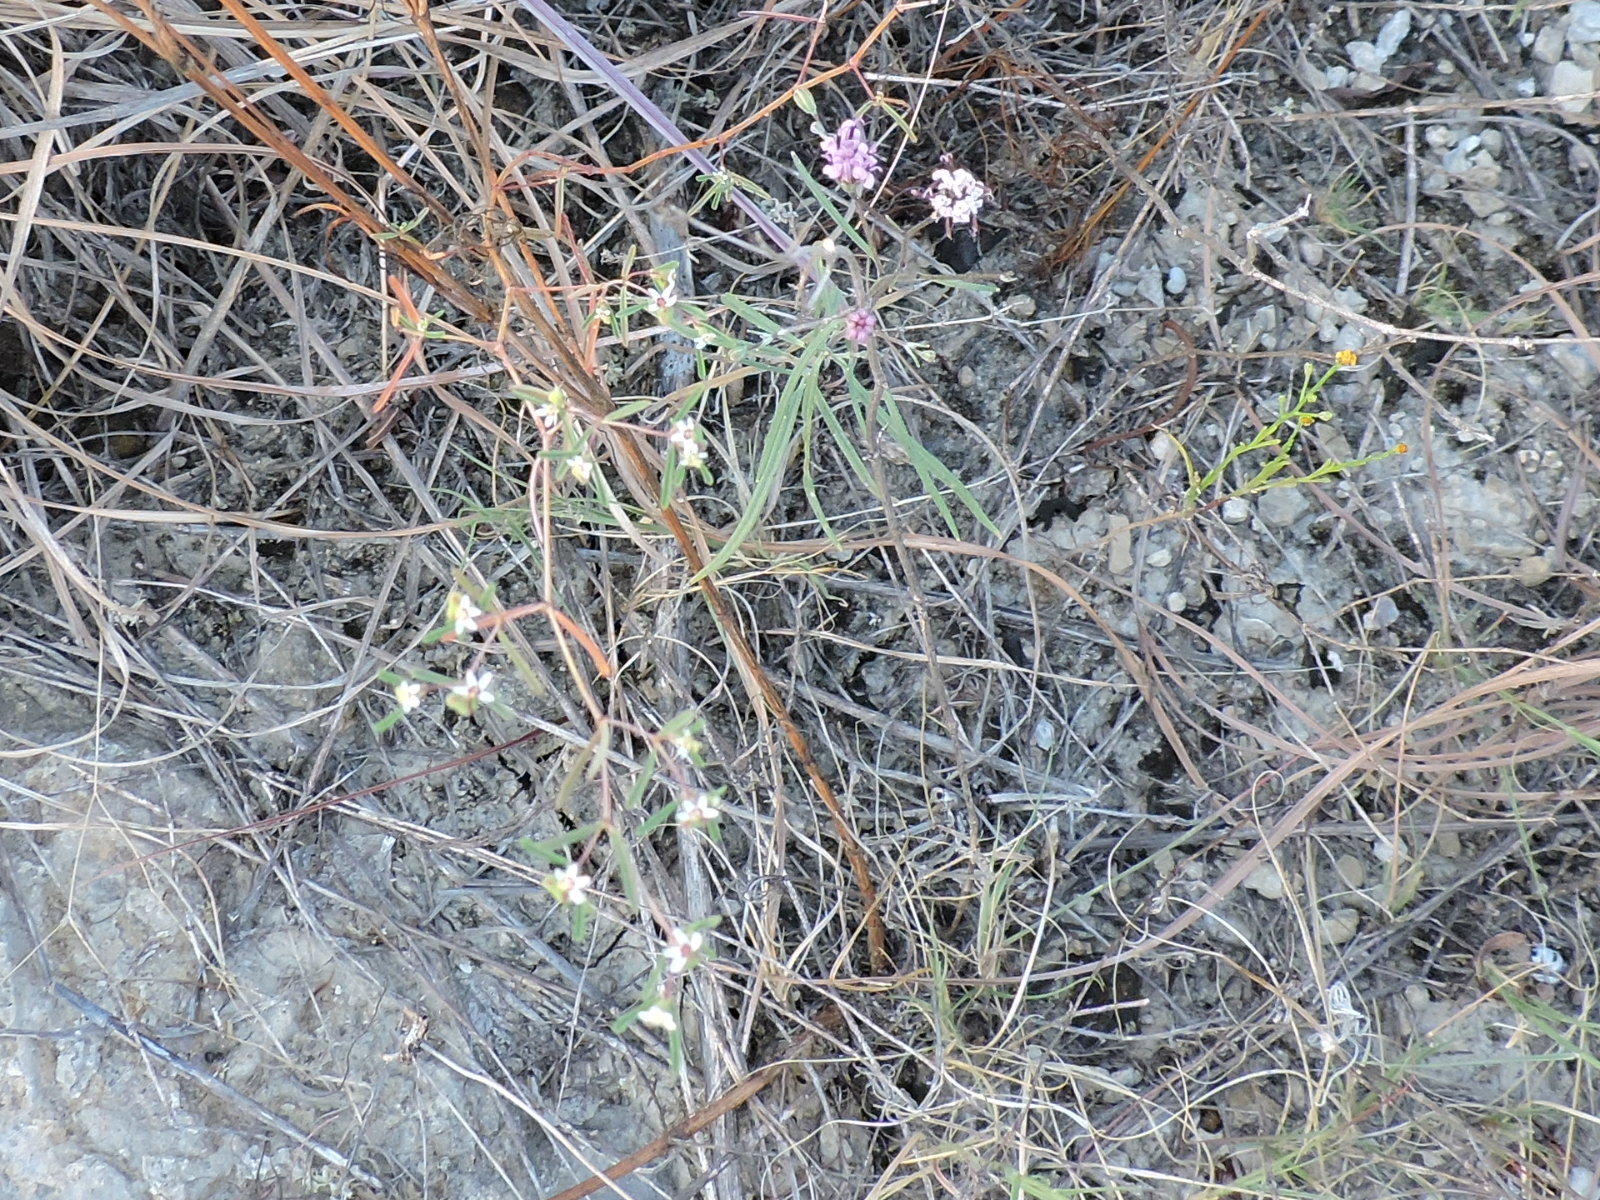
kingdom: Plantae
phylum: Tracheophyta
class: Magnoliopsida
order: Malpighiales
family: Euphorbiaceae
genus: Euphorbia
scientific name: Euphorbia missurica
